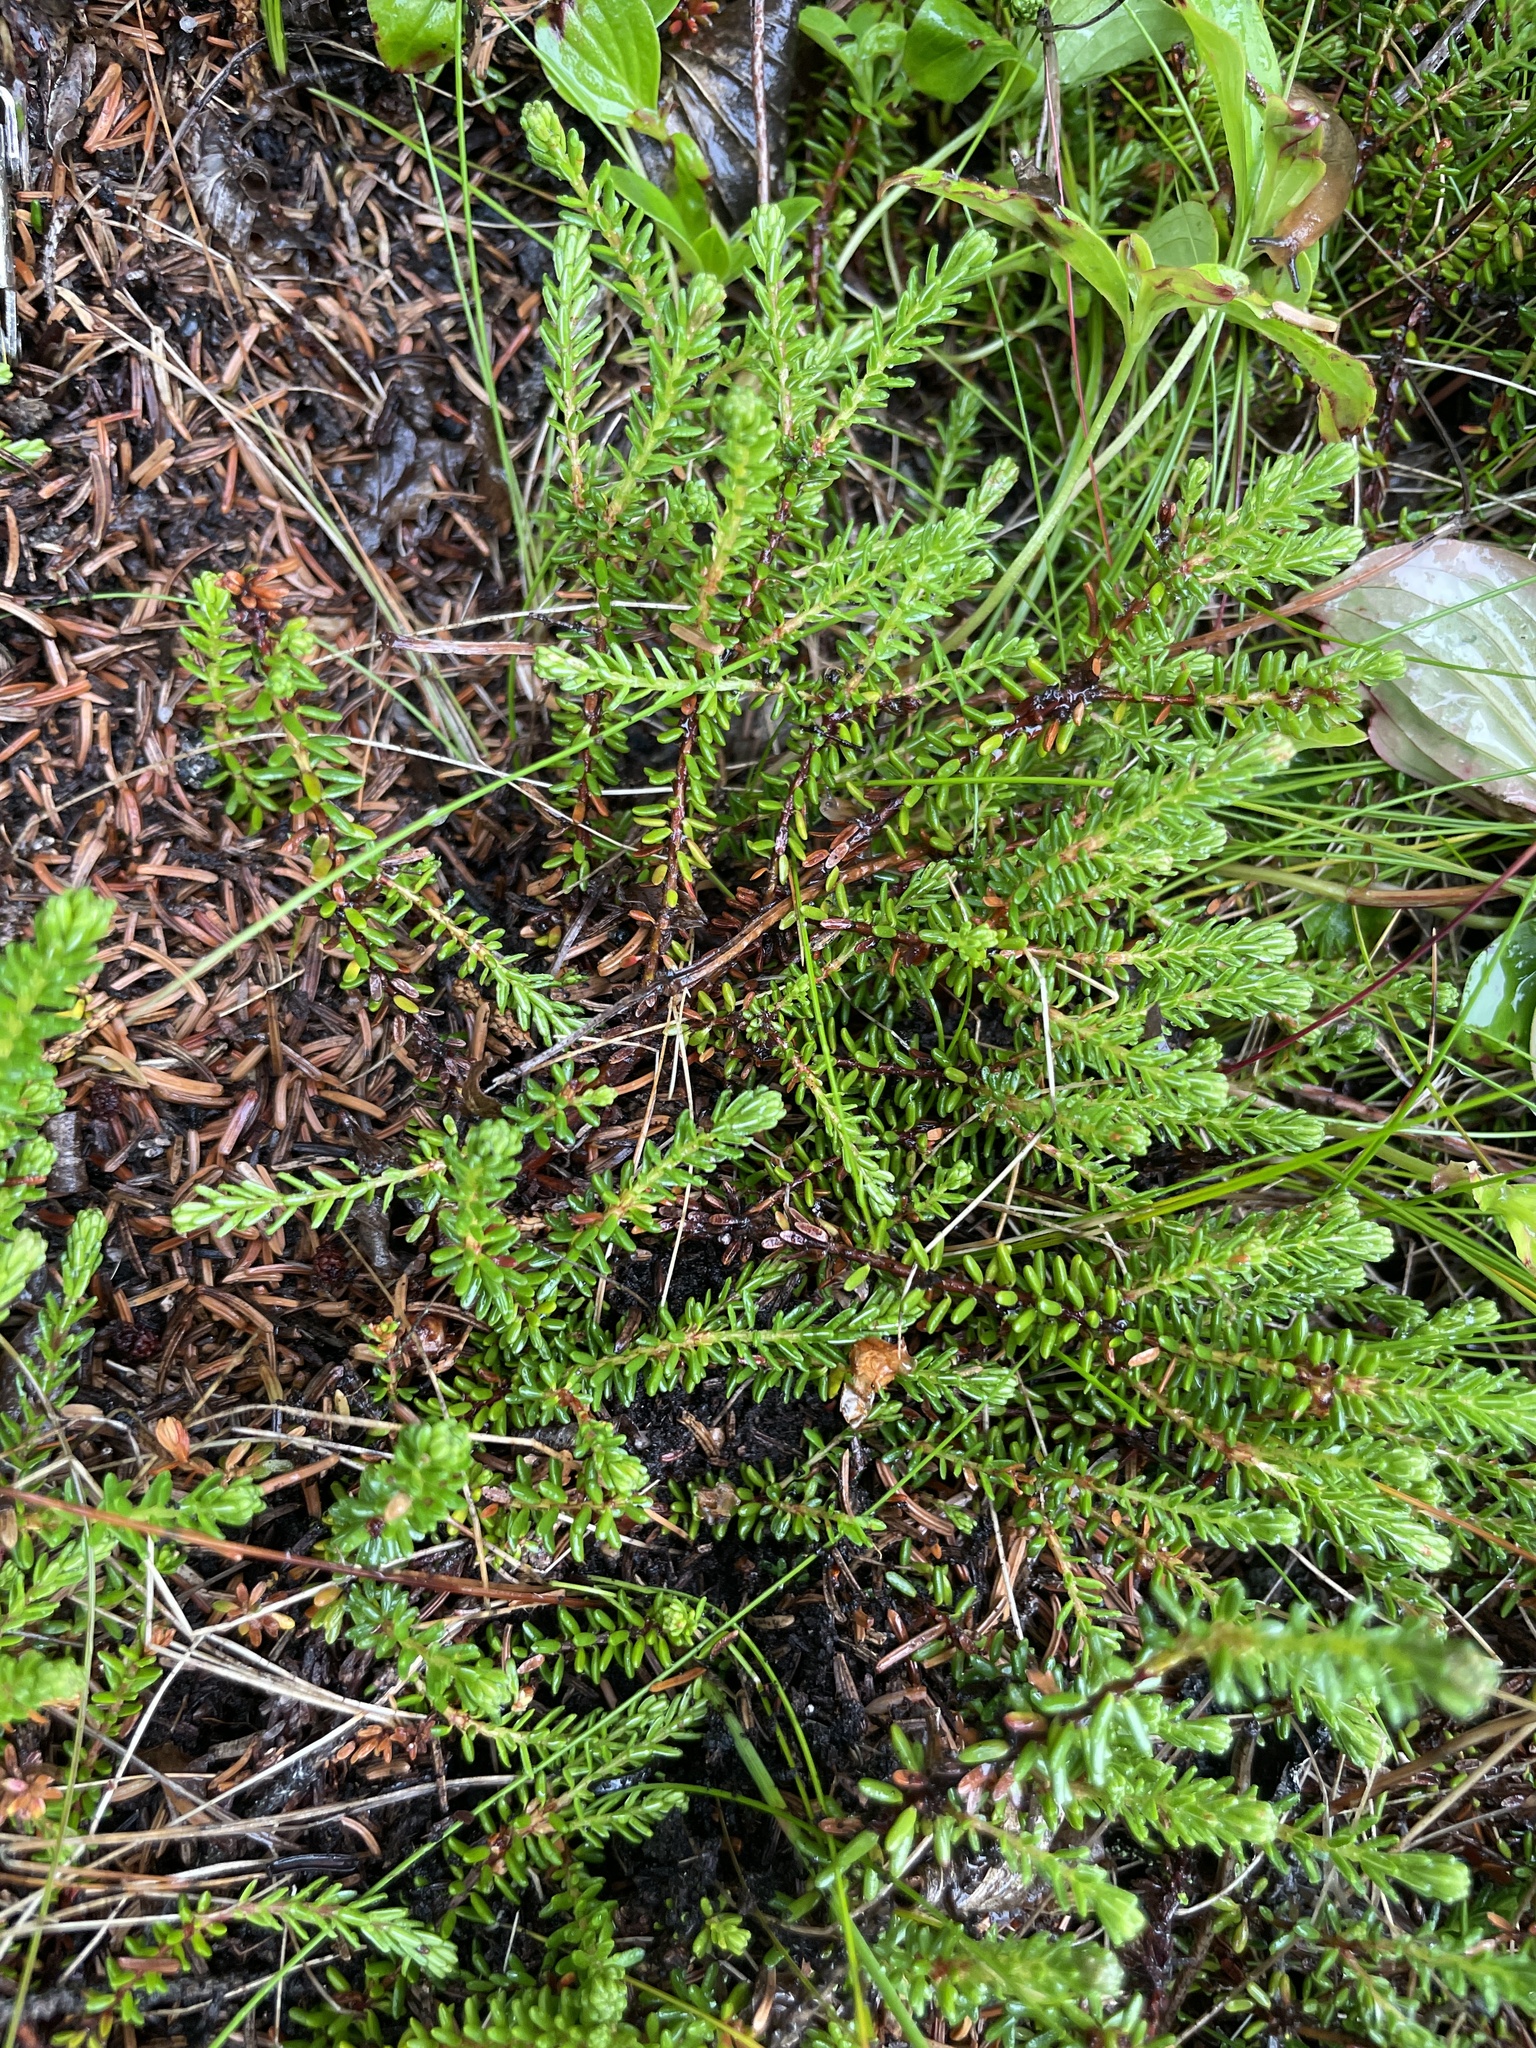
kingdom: Plantae
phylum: Tracheophyta
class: Magnoliopsida
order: Ericales
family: Ericaceae
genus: Empetrum
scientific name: Empetrum nigrum
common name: Black crowberry
